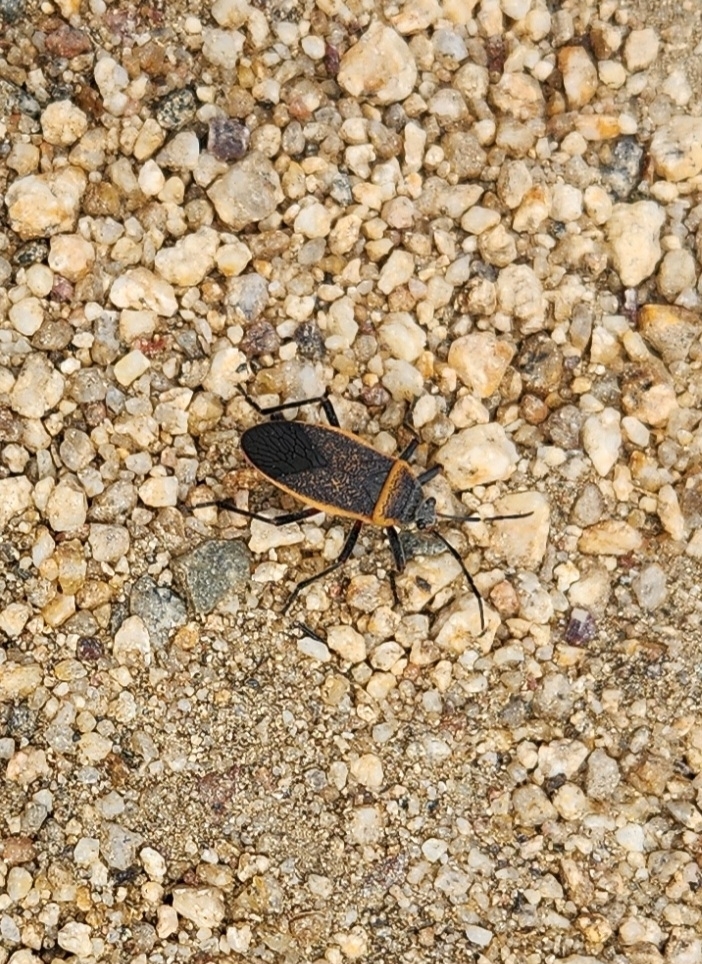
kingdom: Animalia
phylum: Arthropoda
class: Insecta
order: Hemiptera
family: Largidae
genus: Largus
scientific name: Largus californicus
